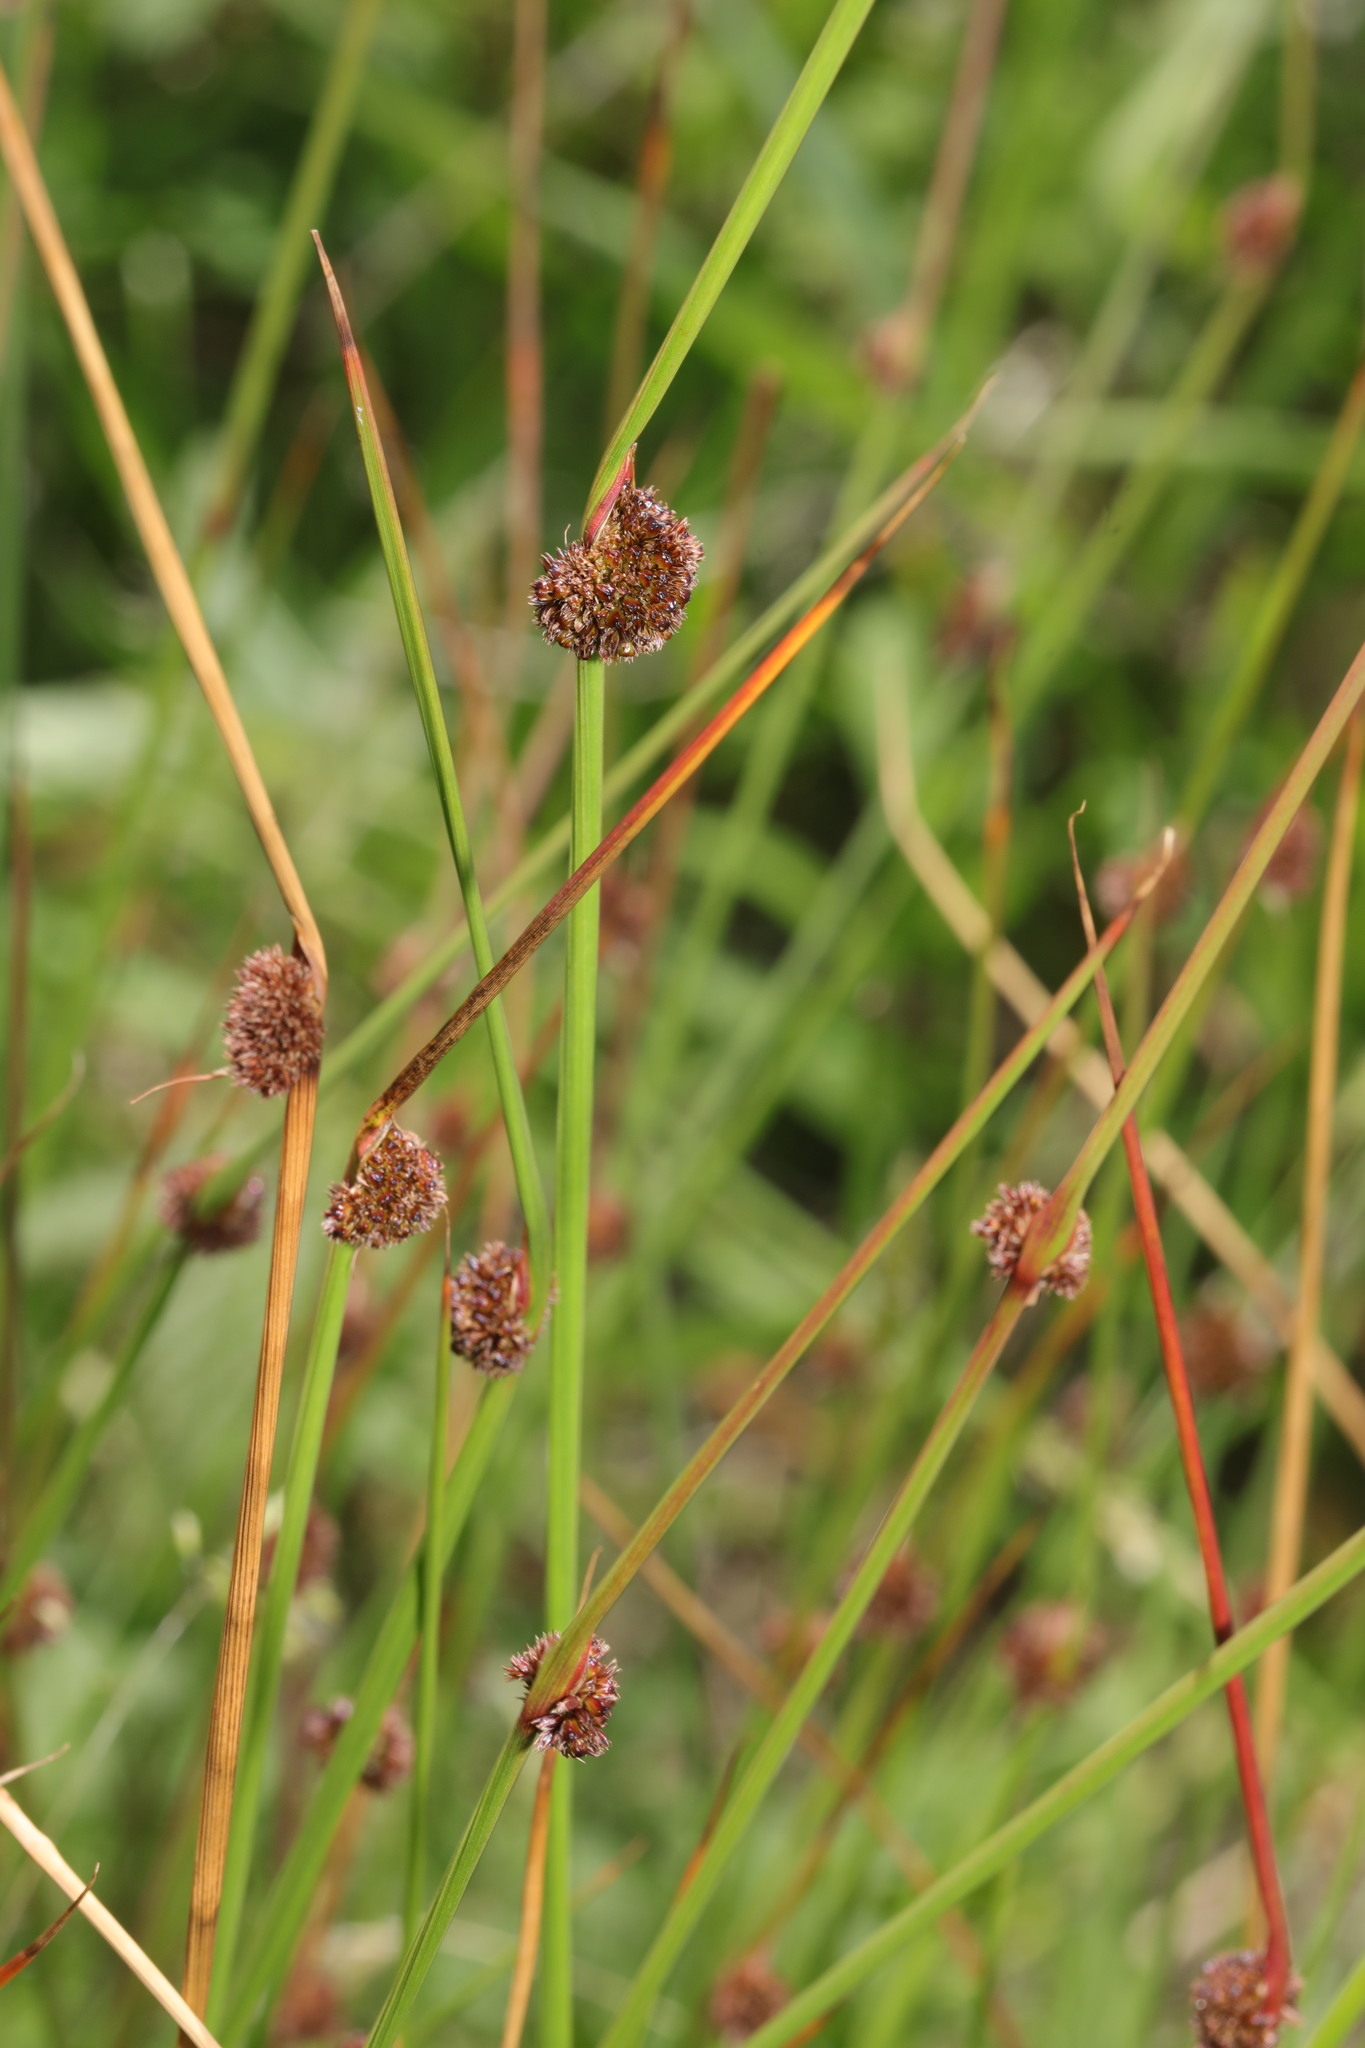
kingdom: Plantae
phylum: Tracheophyta
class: Liliopsida
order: Poales
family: Juncaceae
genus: Juncus
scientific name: Juncus conglomeratus
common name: Compact rush
